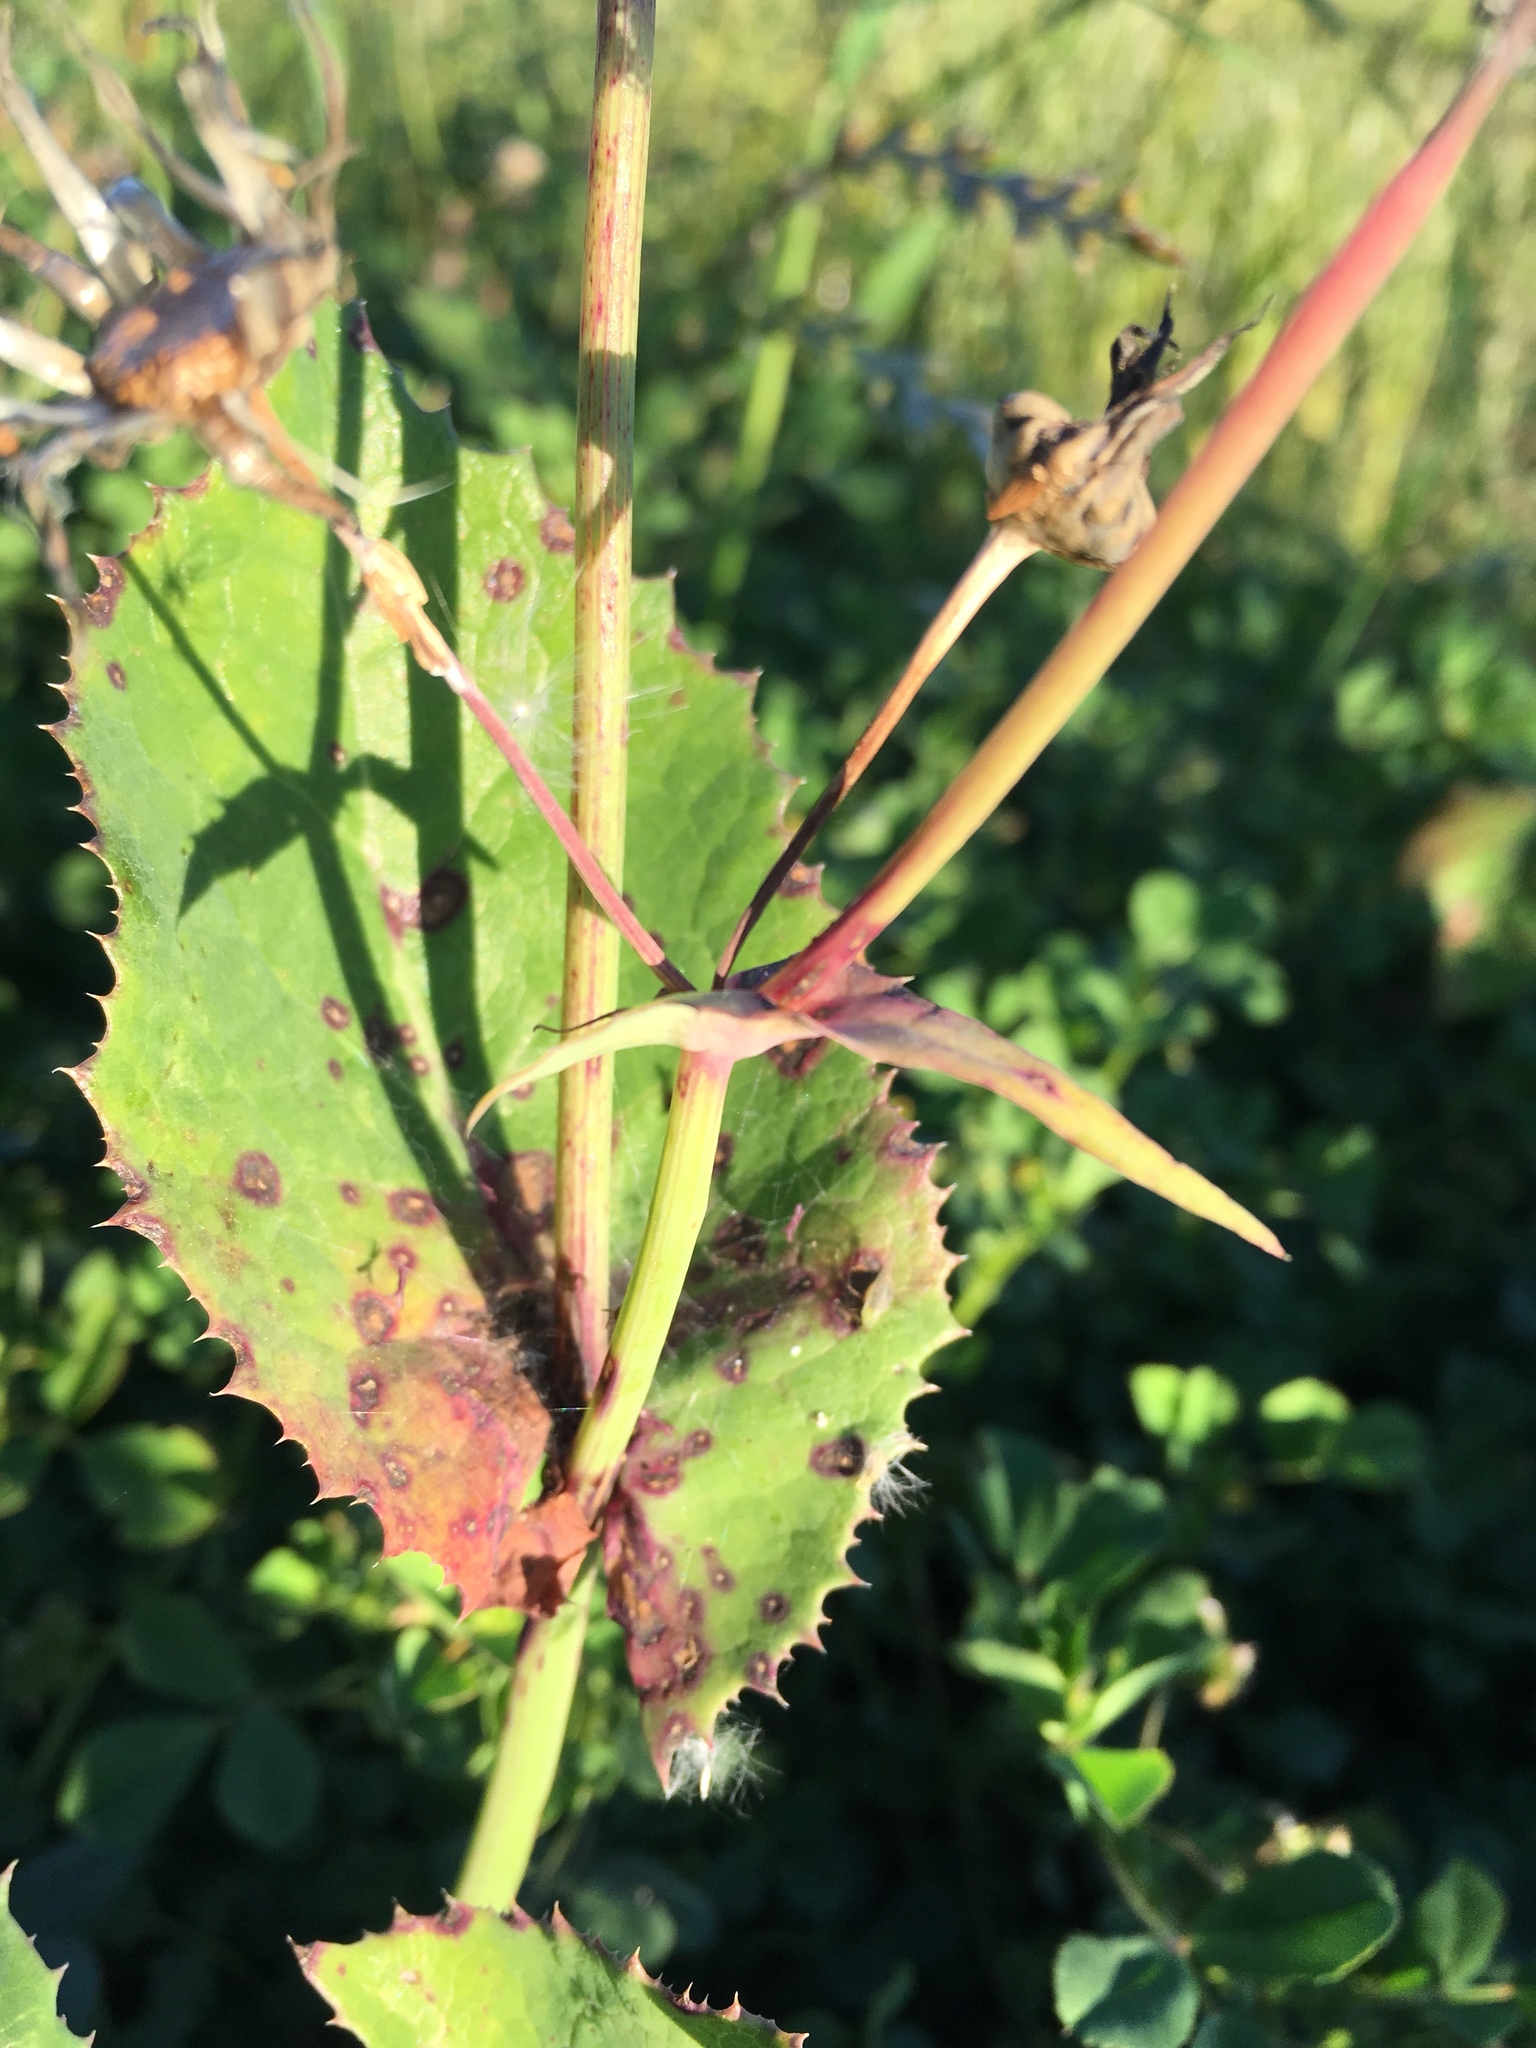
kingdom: Plantae
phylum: Tracheophyta
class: Magnoliopsida
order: Asterales
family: Asteraceae
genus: Sonchus
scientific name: Sonchus oleraceus
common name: Common sowthistle
